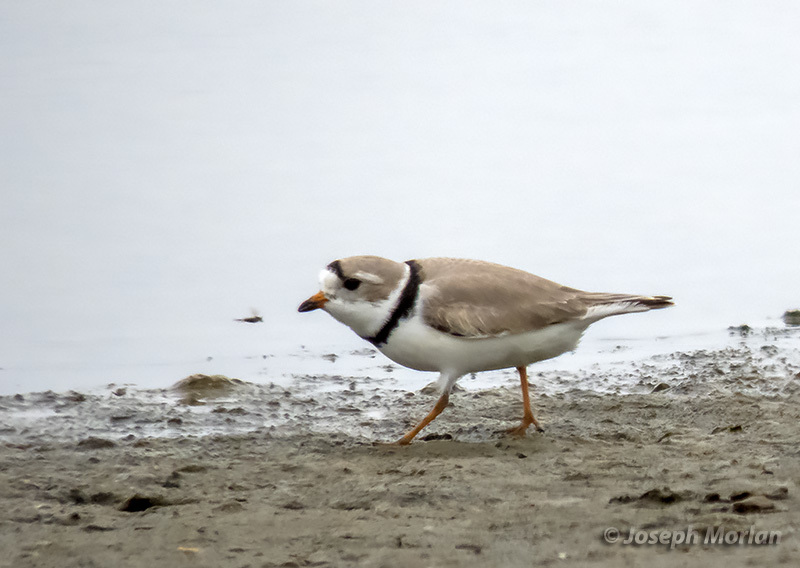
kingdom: Animalia
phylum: Chordata
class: Aves
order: Charadriiformes
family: Charadriidae
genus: Charadrius
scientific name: Charadrius melodus
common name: Piping plover
